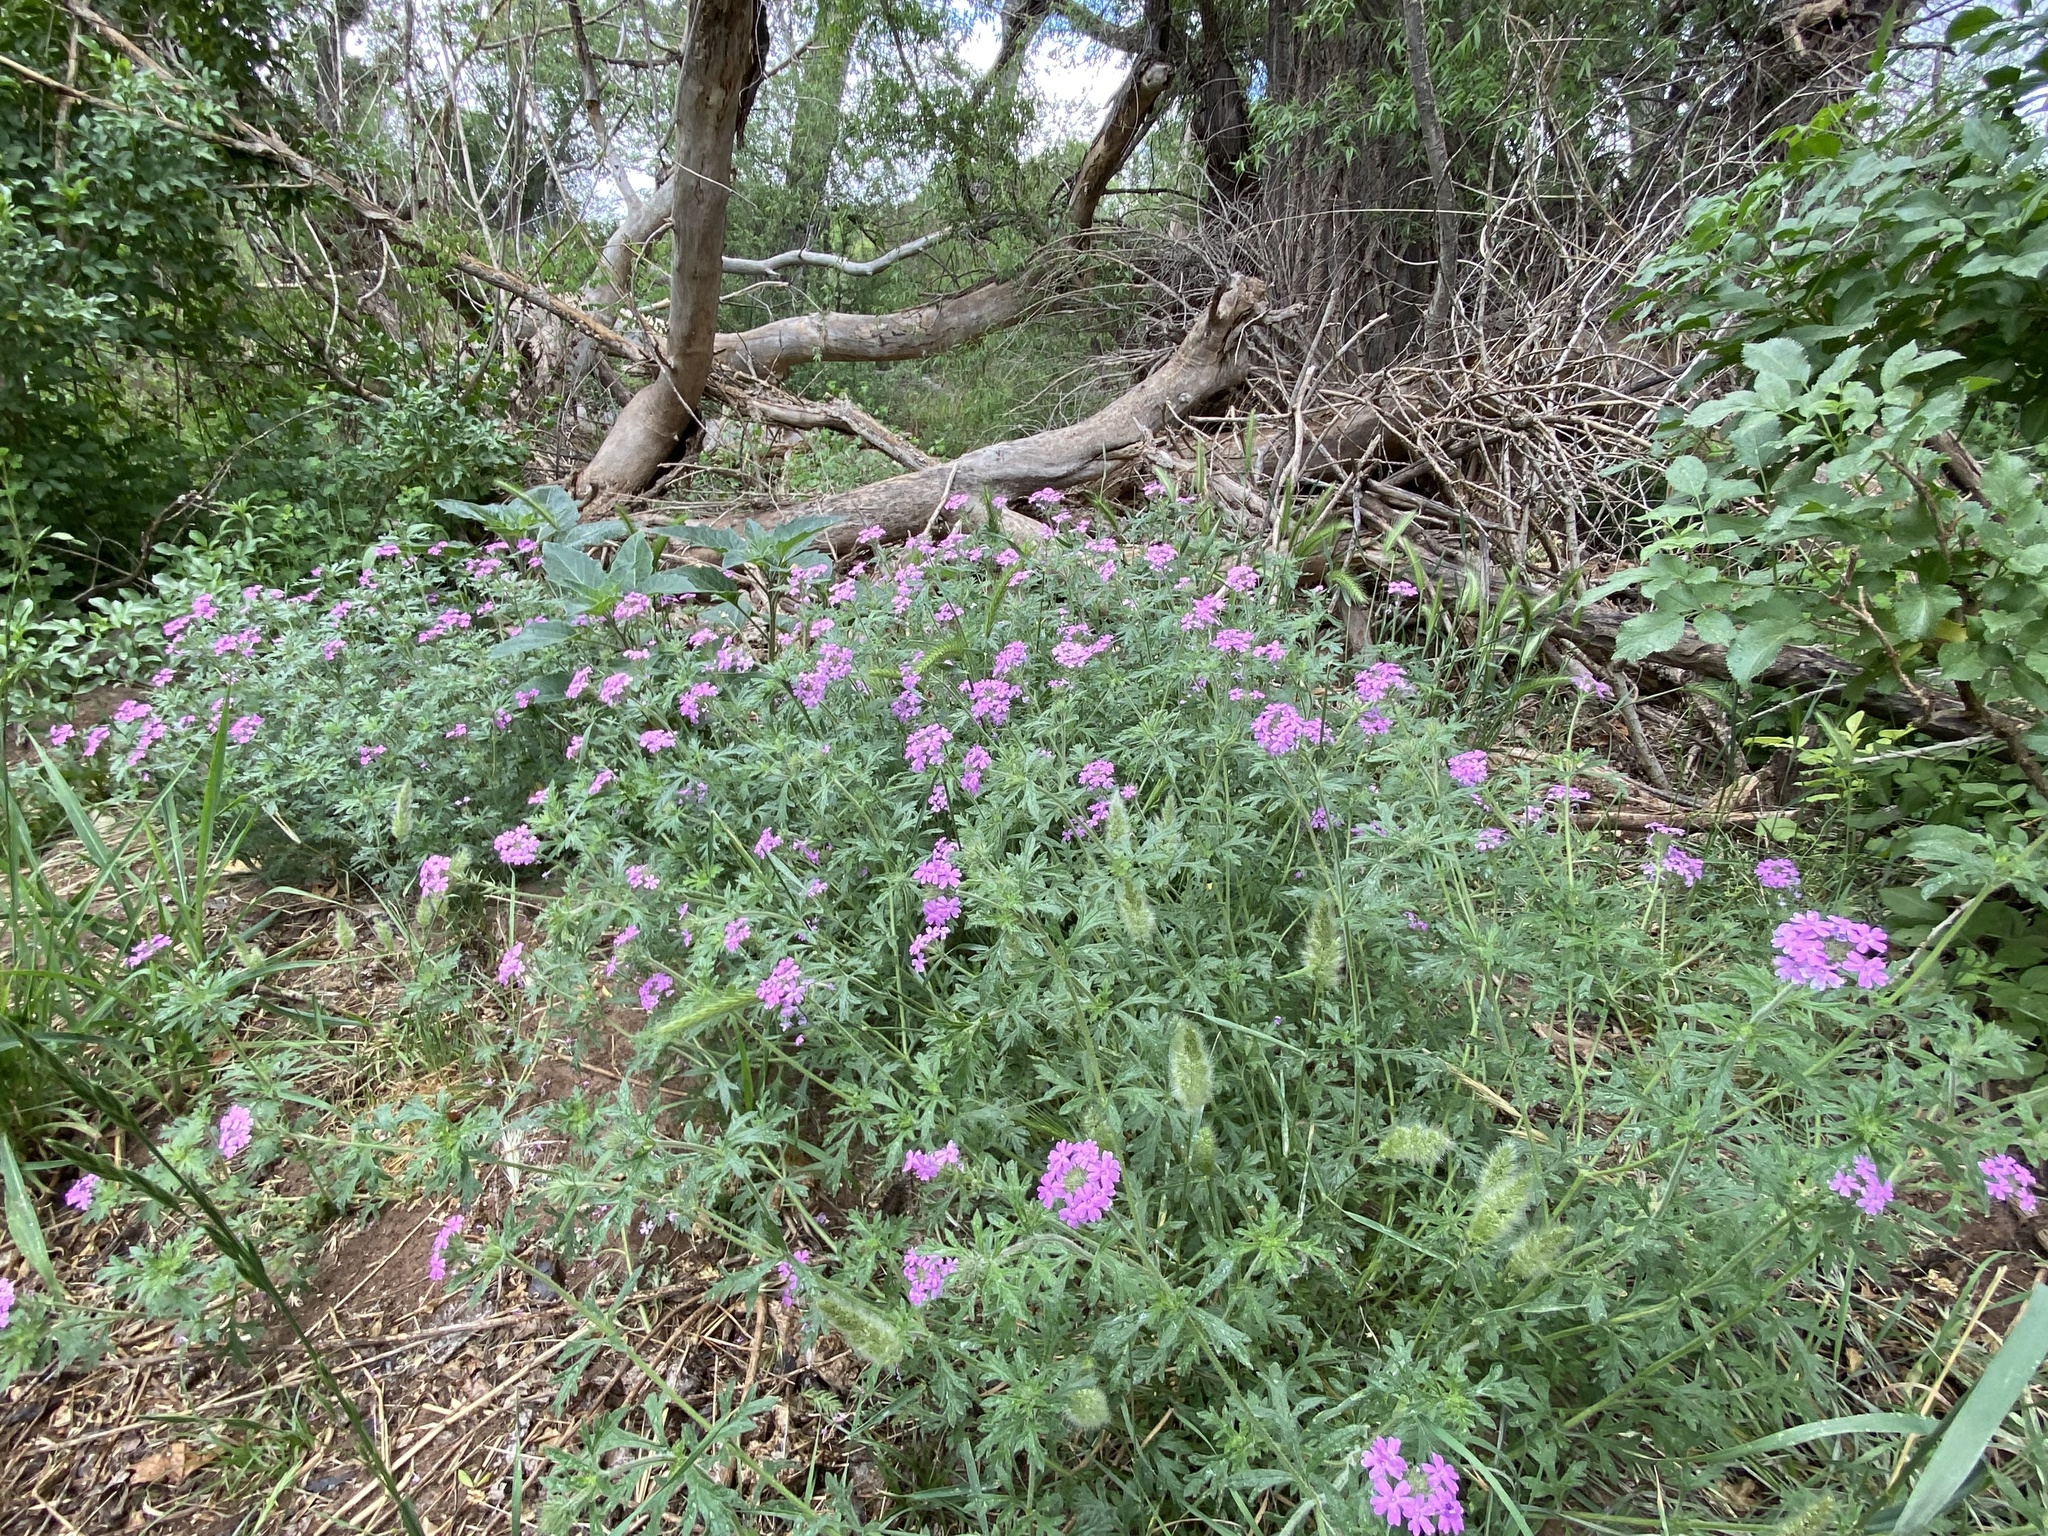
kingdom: Plantae
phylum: Tracheophyta
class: Magnoliopsida
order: Lamiales
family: Verbenaceae
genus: Verbena
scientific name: Verbena bipinnatifida
